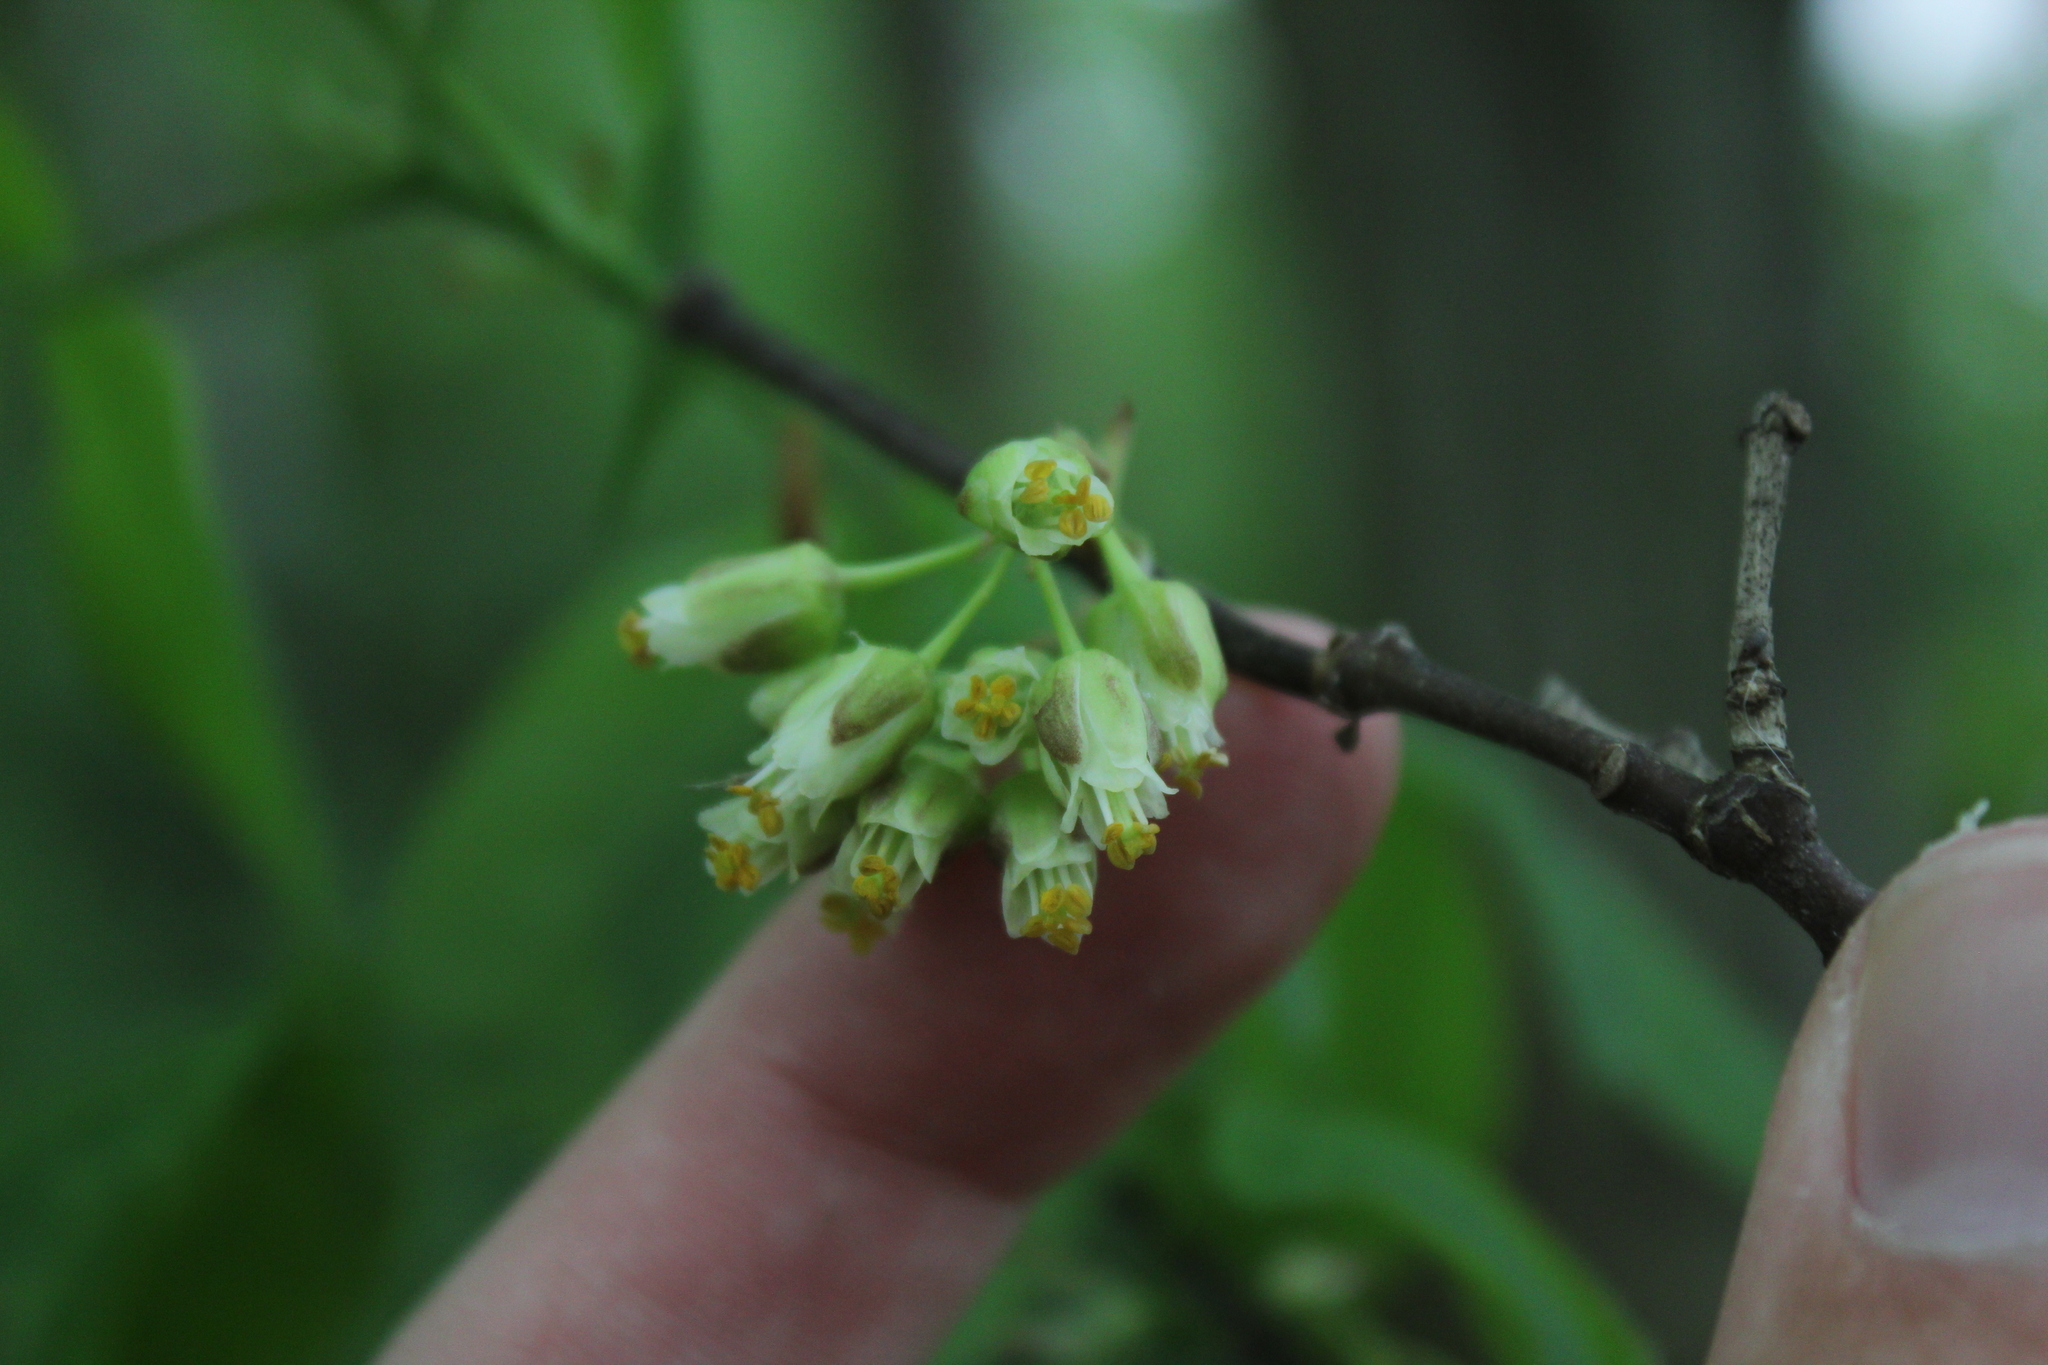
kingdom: Plantae
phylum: Tracheophyta
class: Magnoliopsida
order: Crossosomatales
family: Staphyleaceae
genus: Staphylea
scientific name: Staphylea trifolia
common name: American bladdernut
